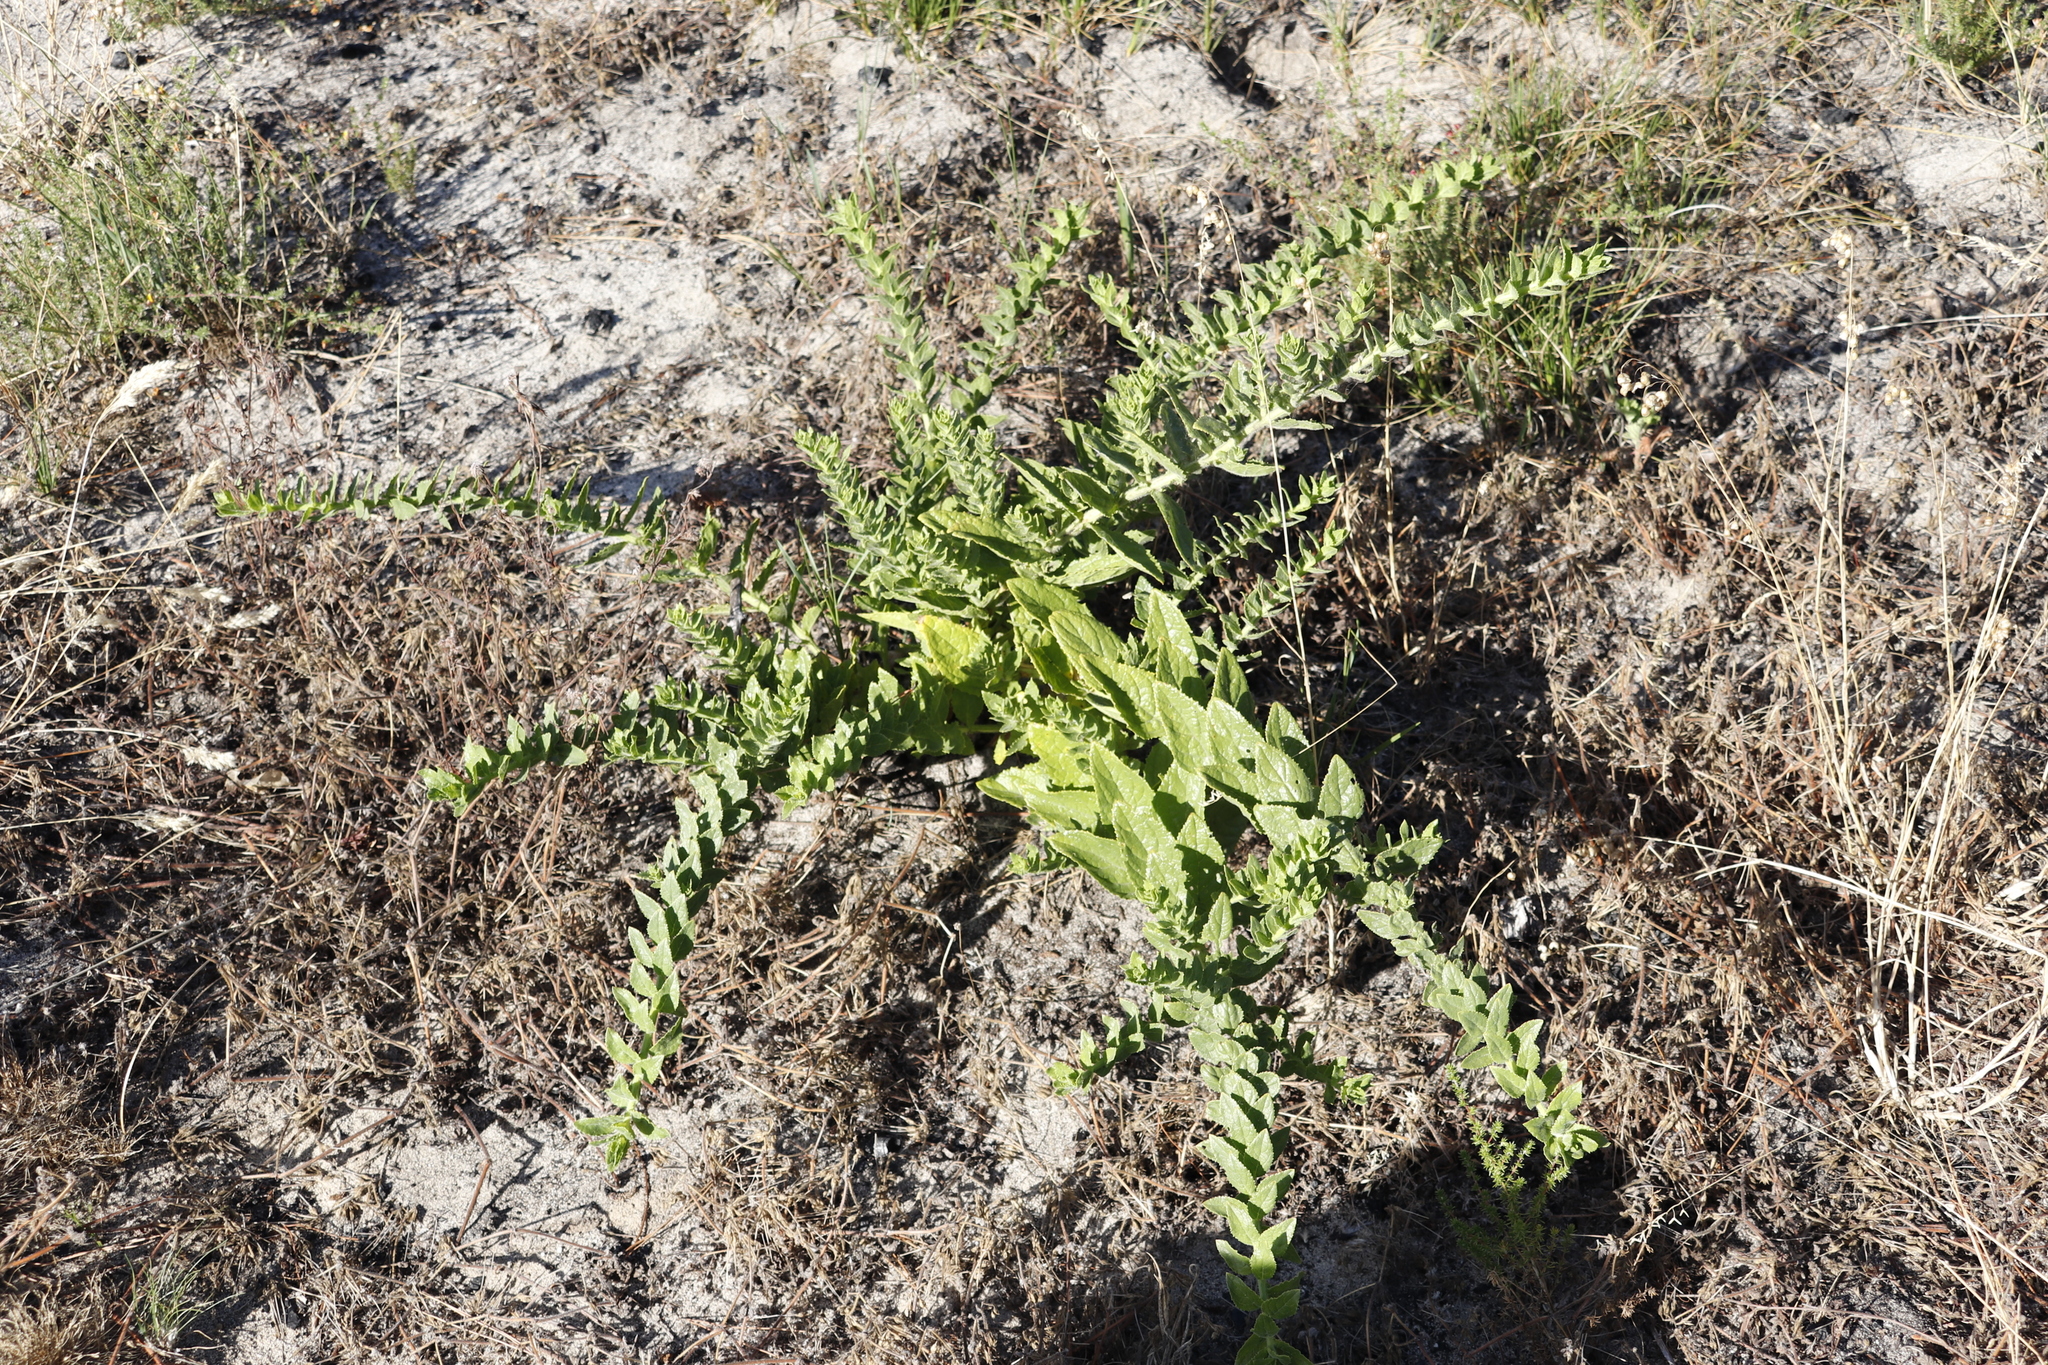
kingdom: Plantae
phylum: Tracheophyta
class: Magnoliopsida
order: Lamiales
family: Scrophulariaceae
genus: Oftia
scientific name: Oftia africana
